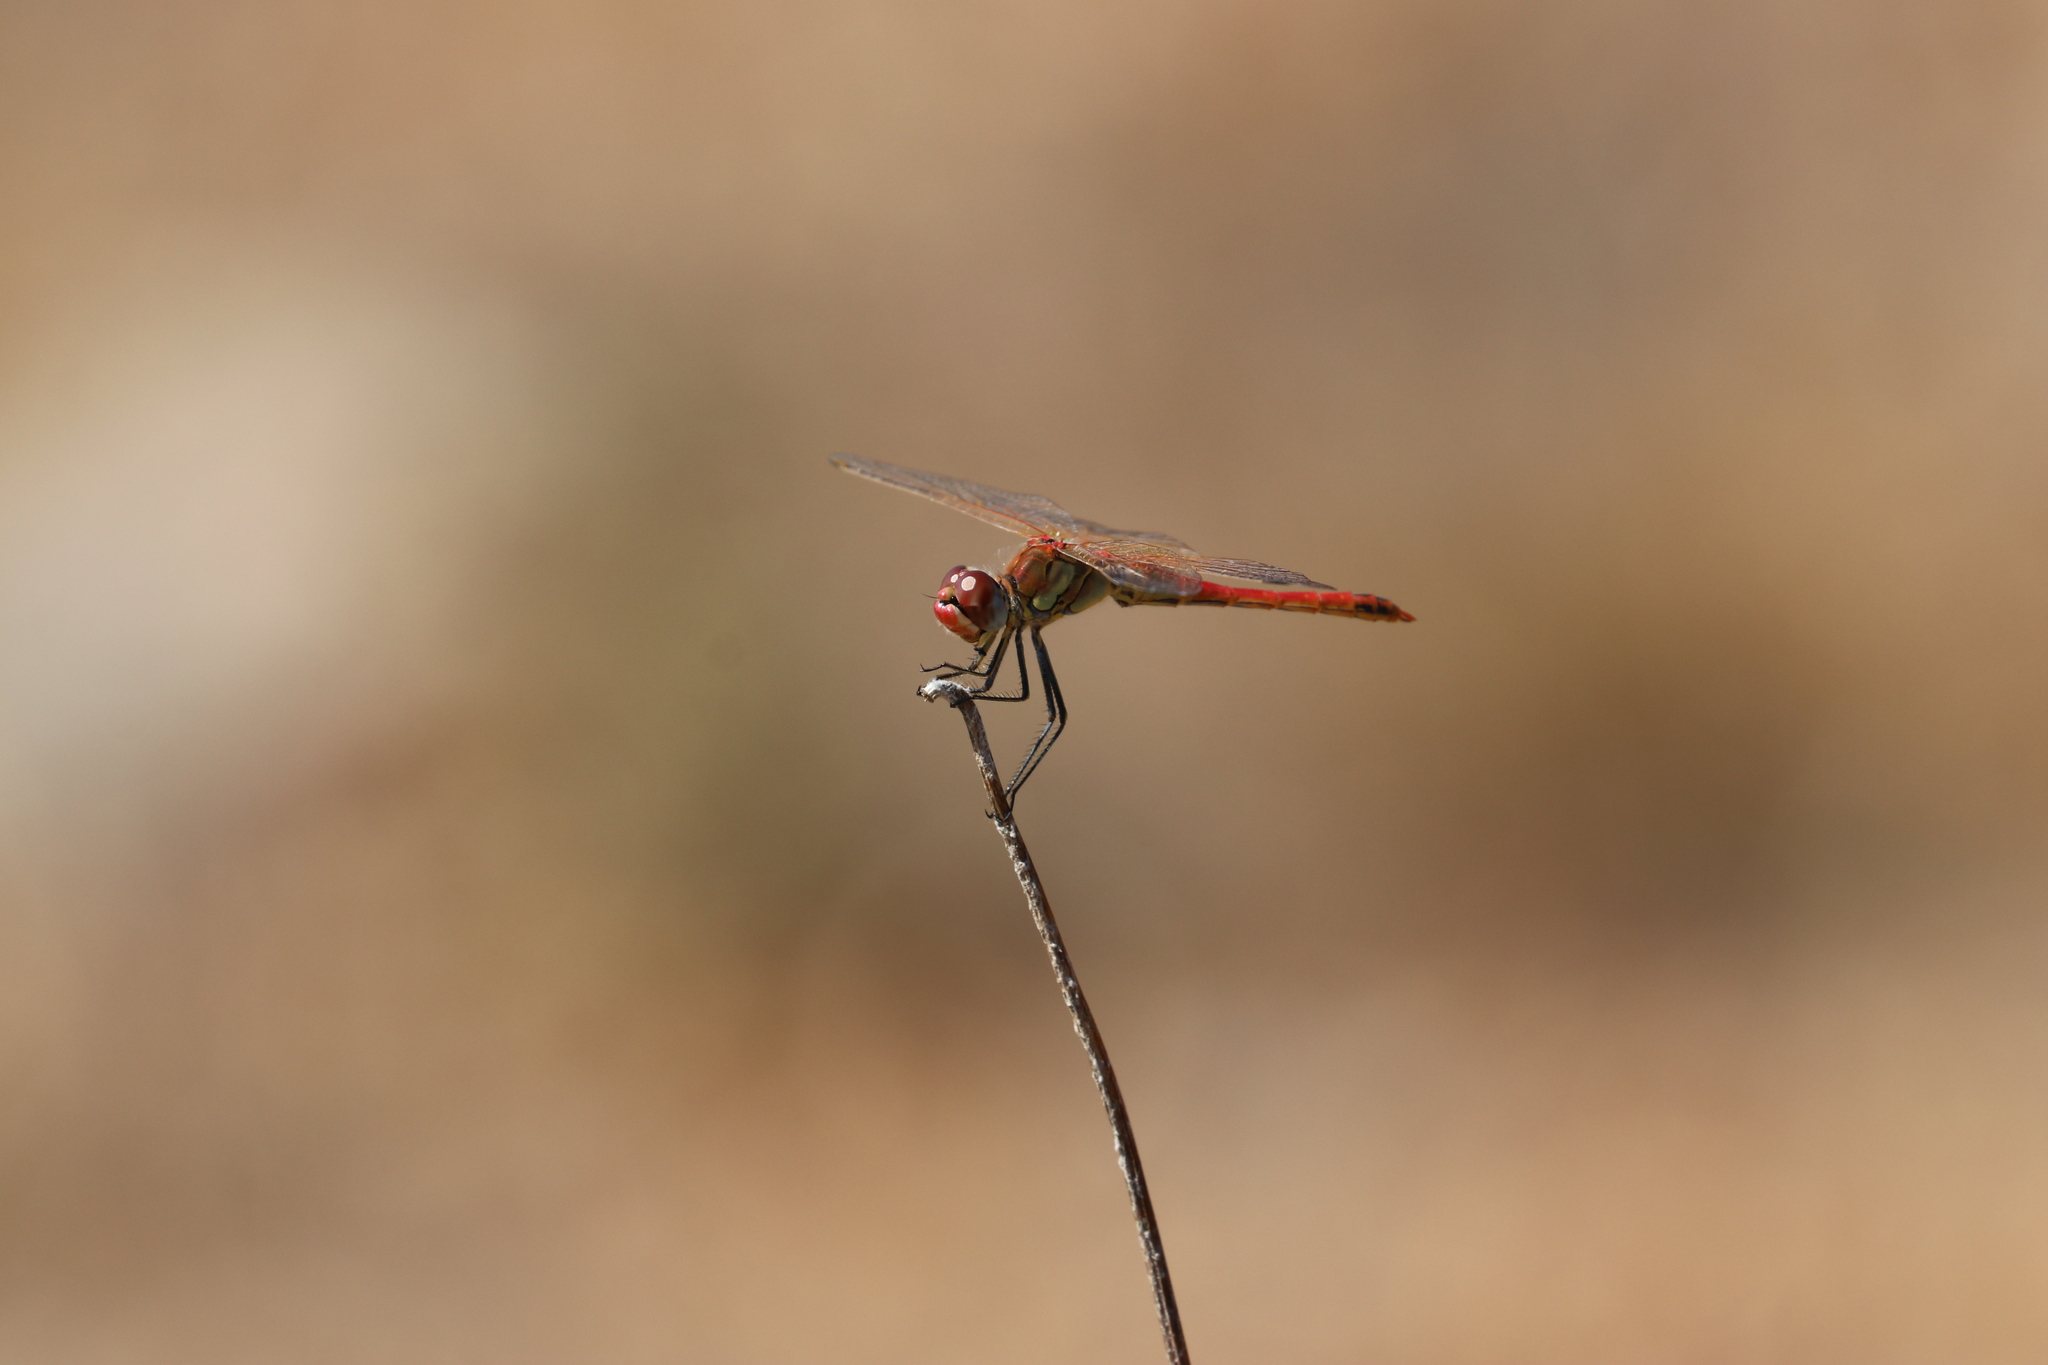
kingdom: Animalia
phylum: Arthropoda
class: Insecta
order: Odonata
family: Libellulidae
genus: Sympetrum
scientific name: Sympetrum fonscolombii
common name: Red-veined darter
